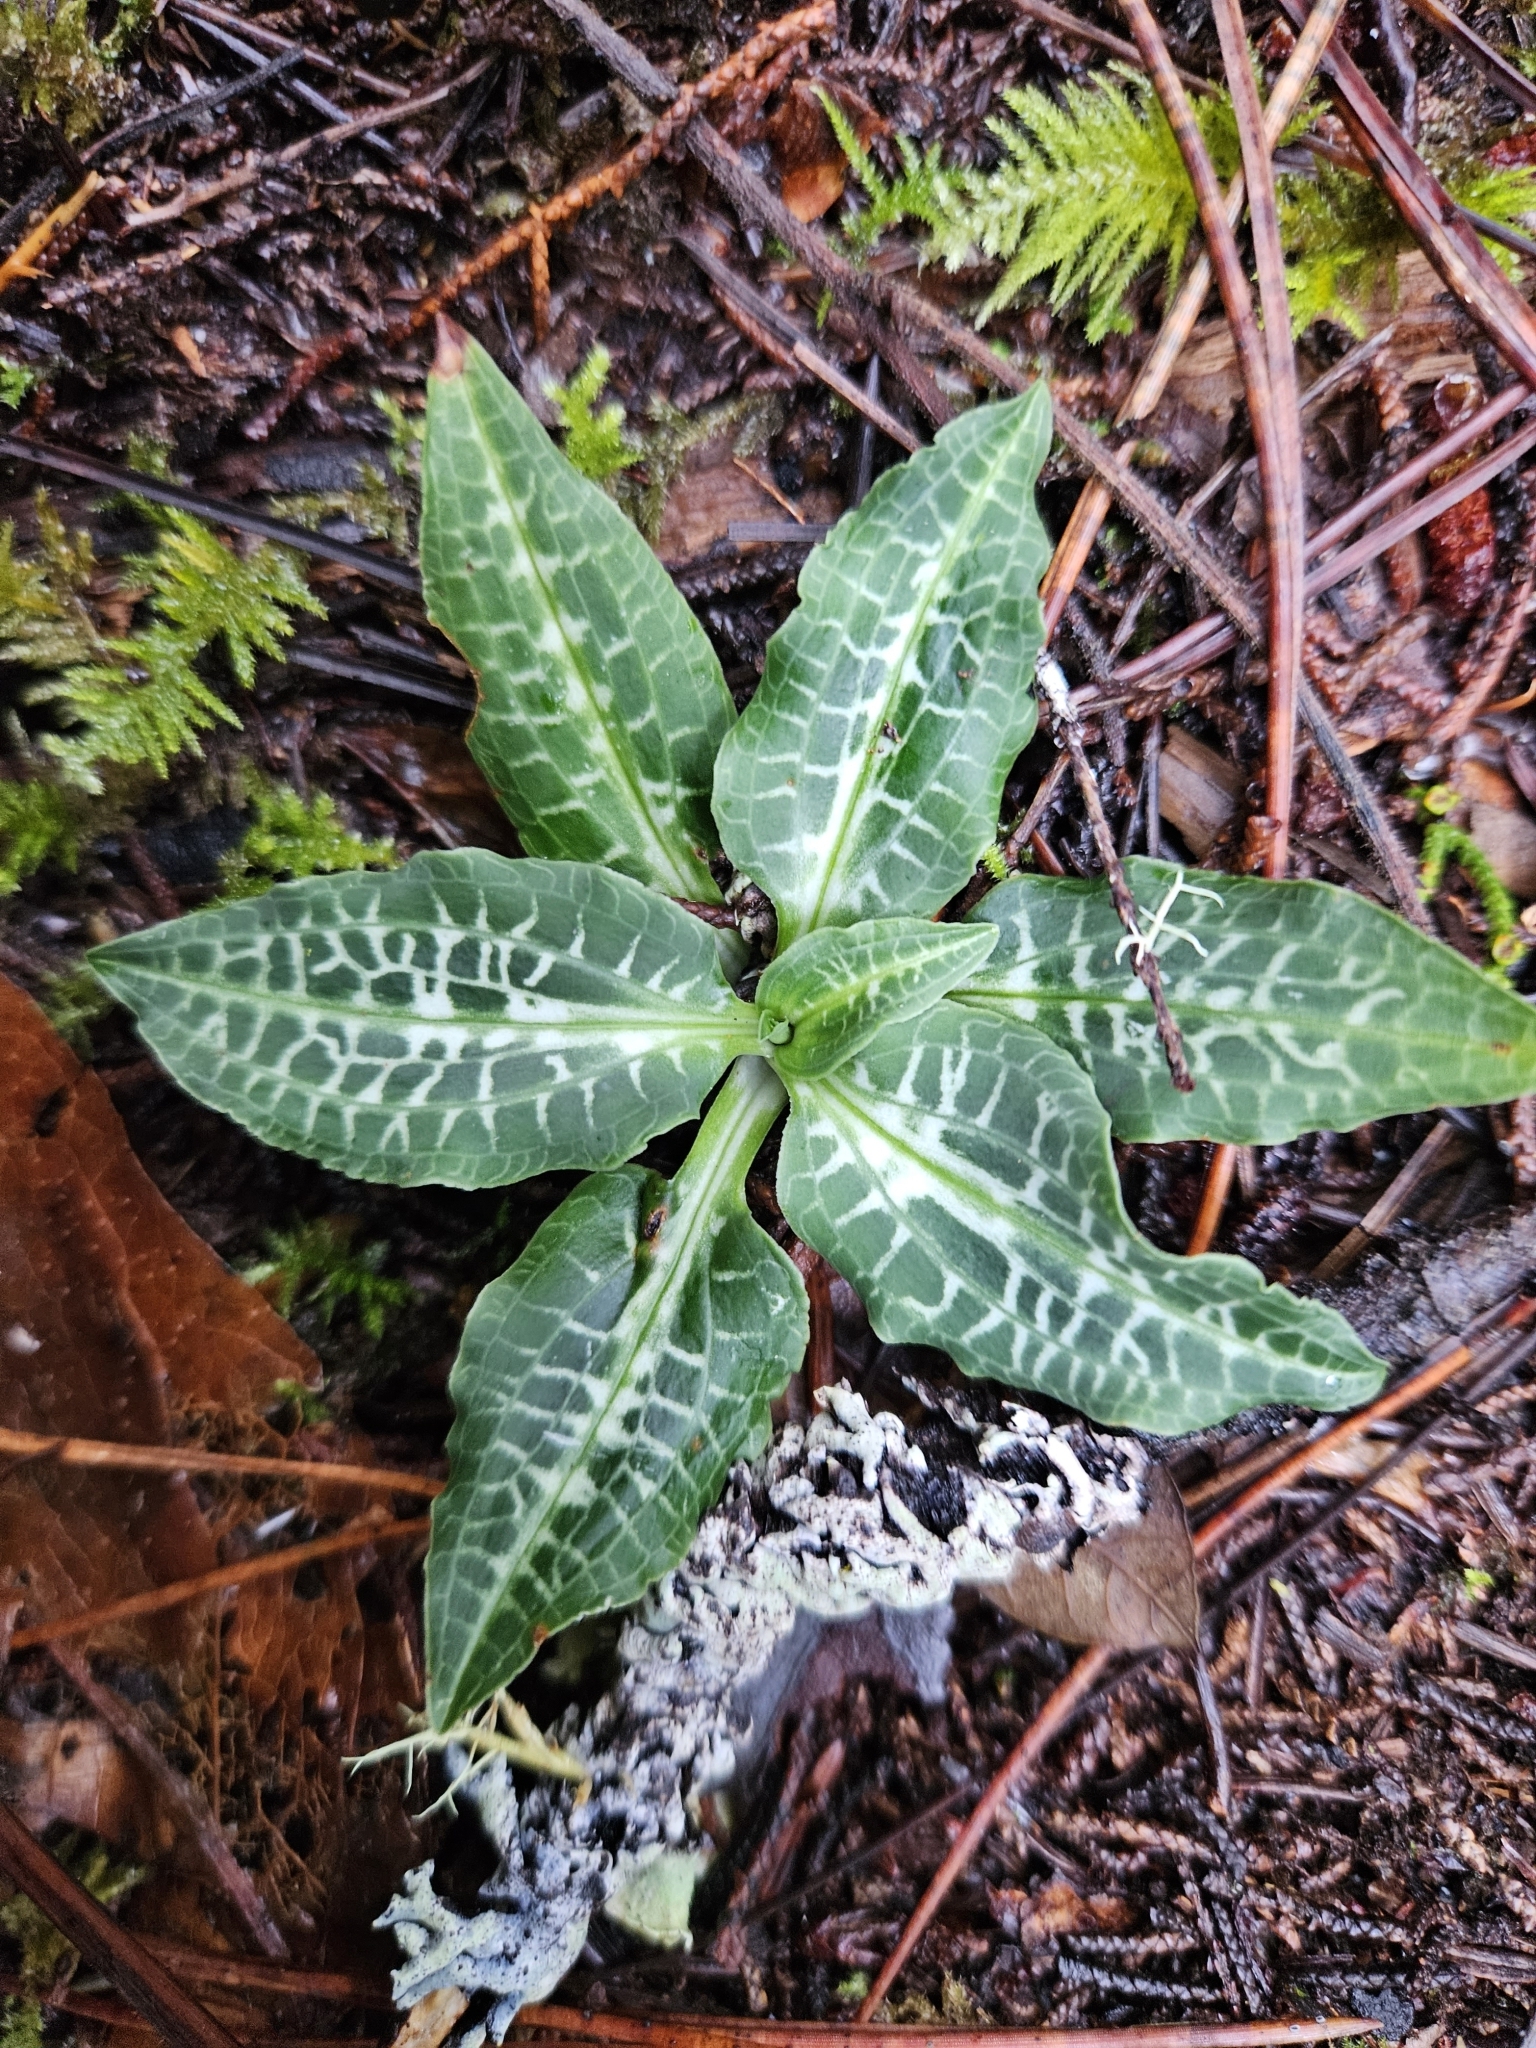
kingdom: Plantae
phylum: Tracheophyta
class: Liliopsida
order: Asparagales
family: Orchidaceae
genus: Goodyera
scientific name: Goodyera oblongifolia
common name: Giant rattlesnake-plantain
